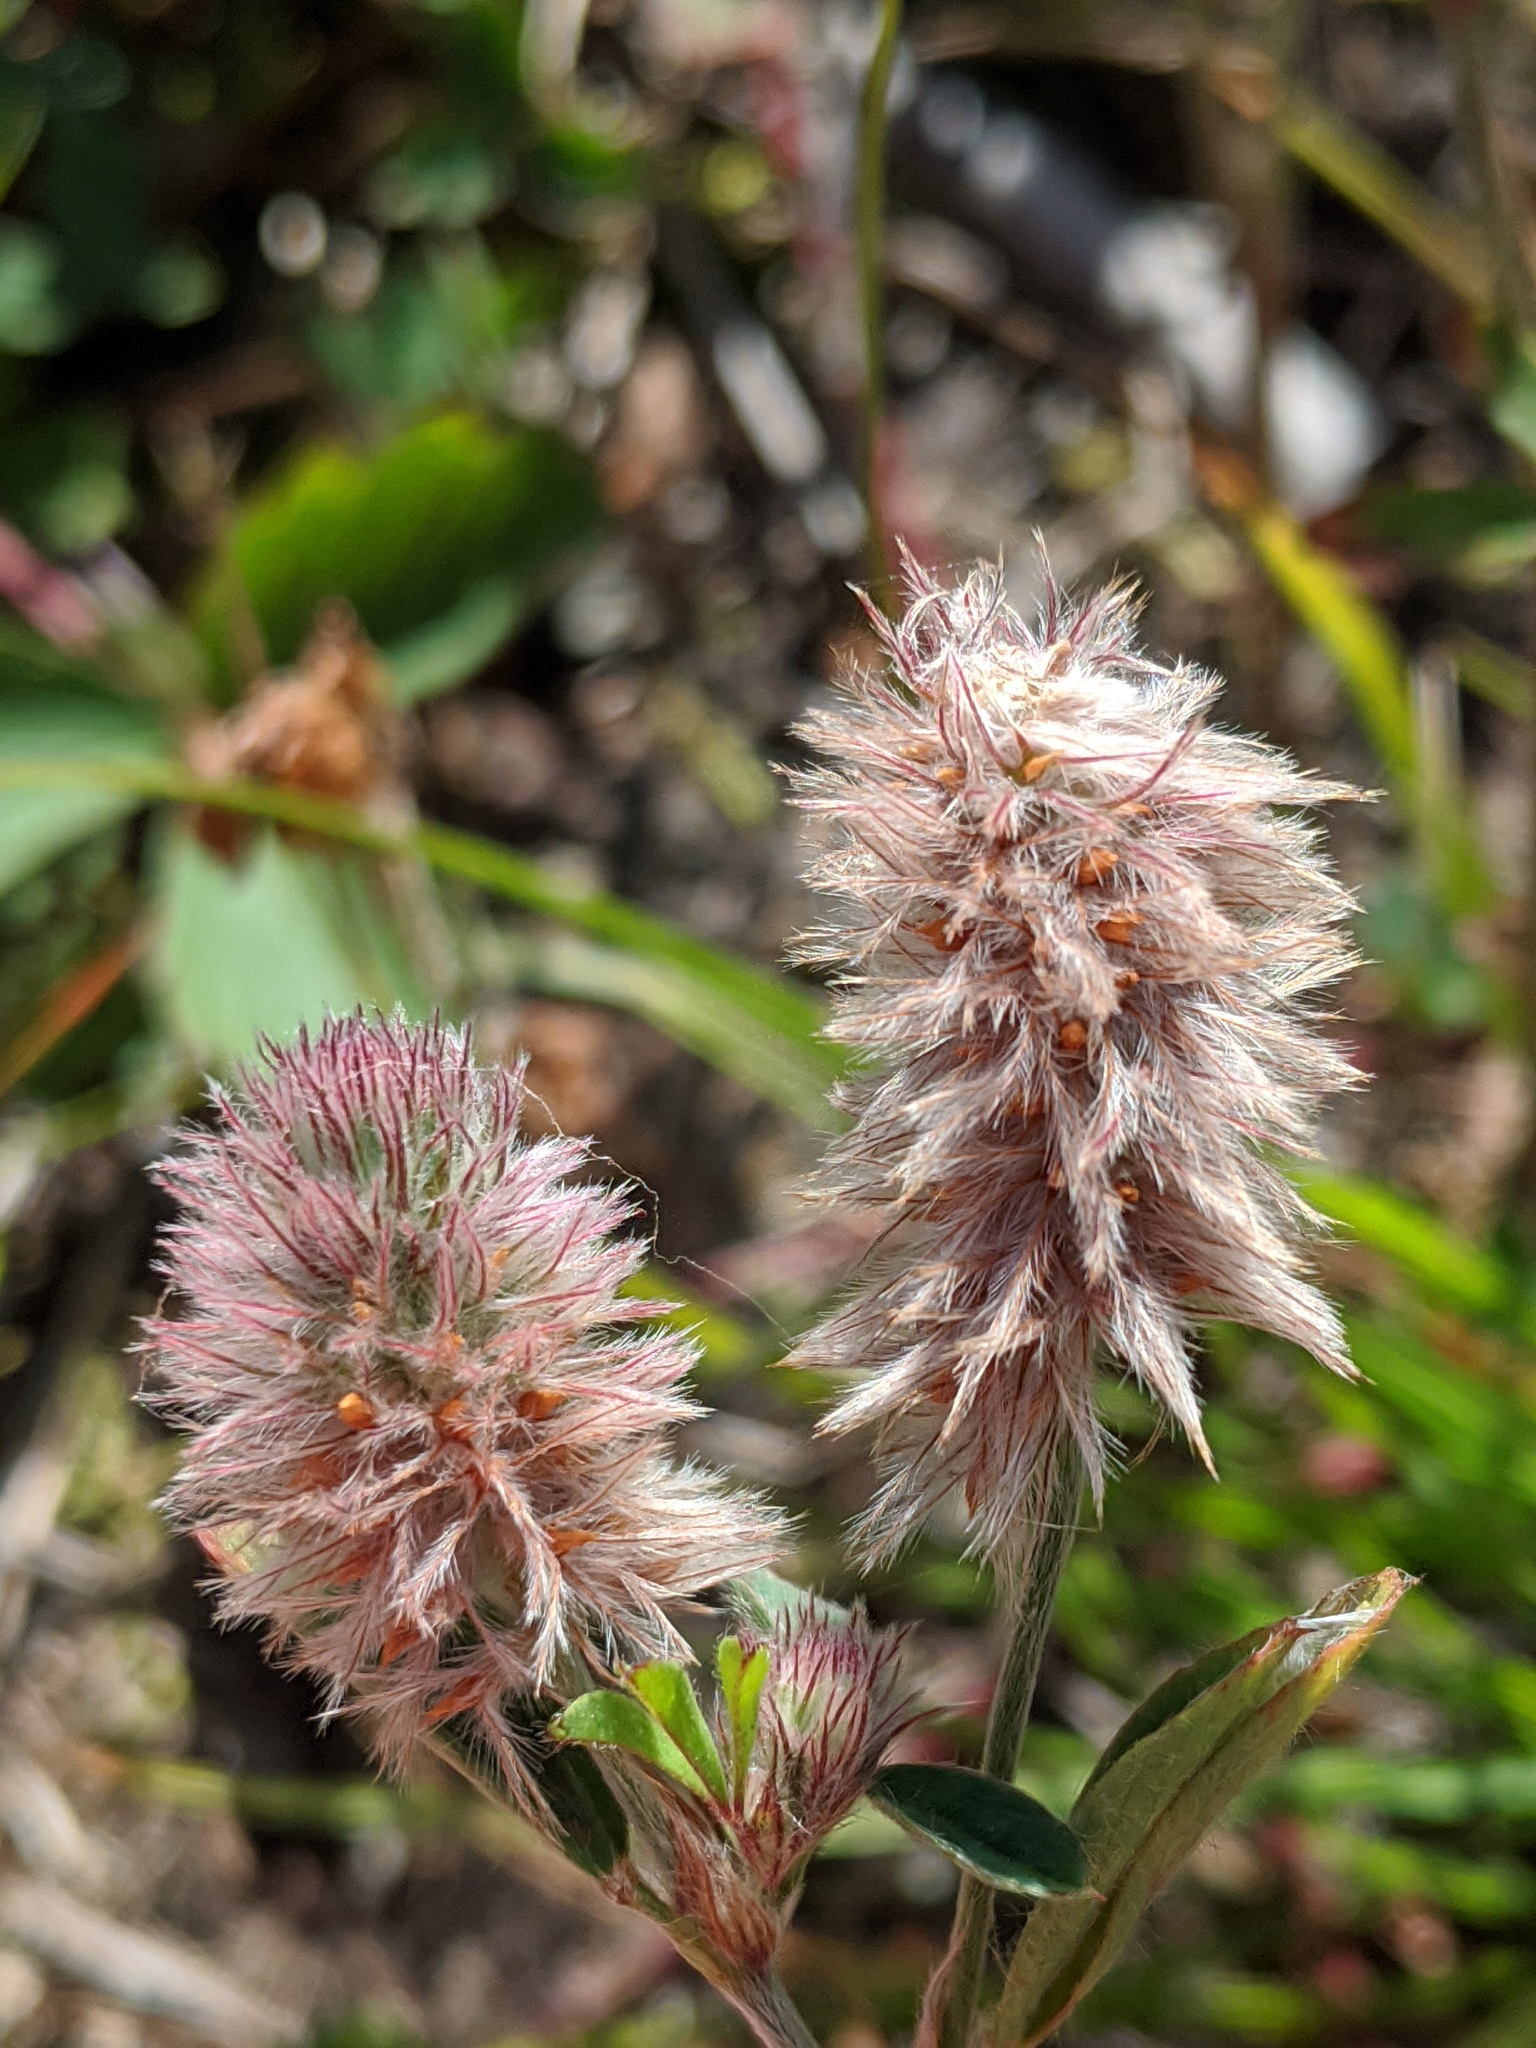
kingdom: Plantae
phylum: Tracheophyta
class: Magnoliopsida
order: Fabales
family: Fabaceae
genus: Trifolium
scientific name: Trifolium arvense
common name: Hare's-foot clover
